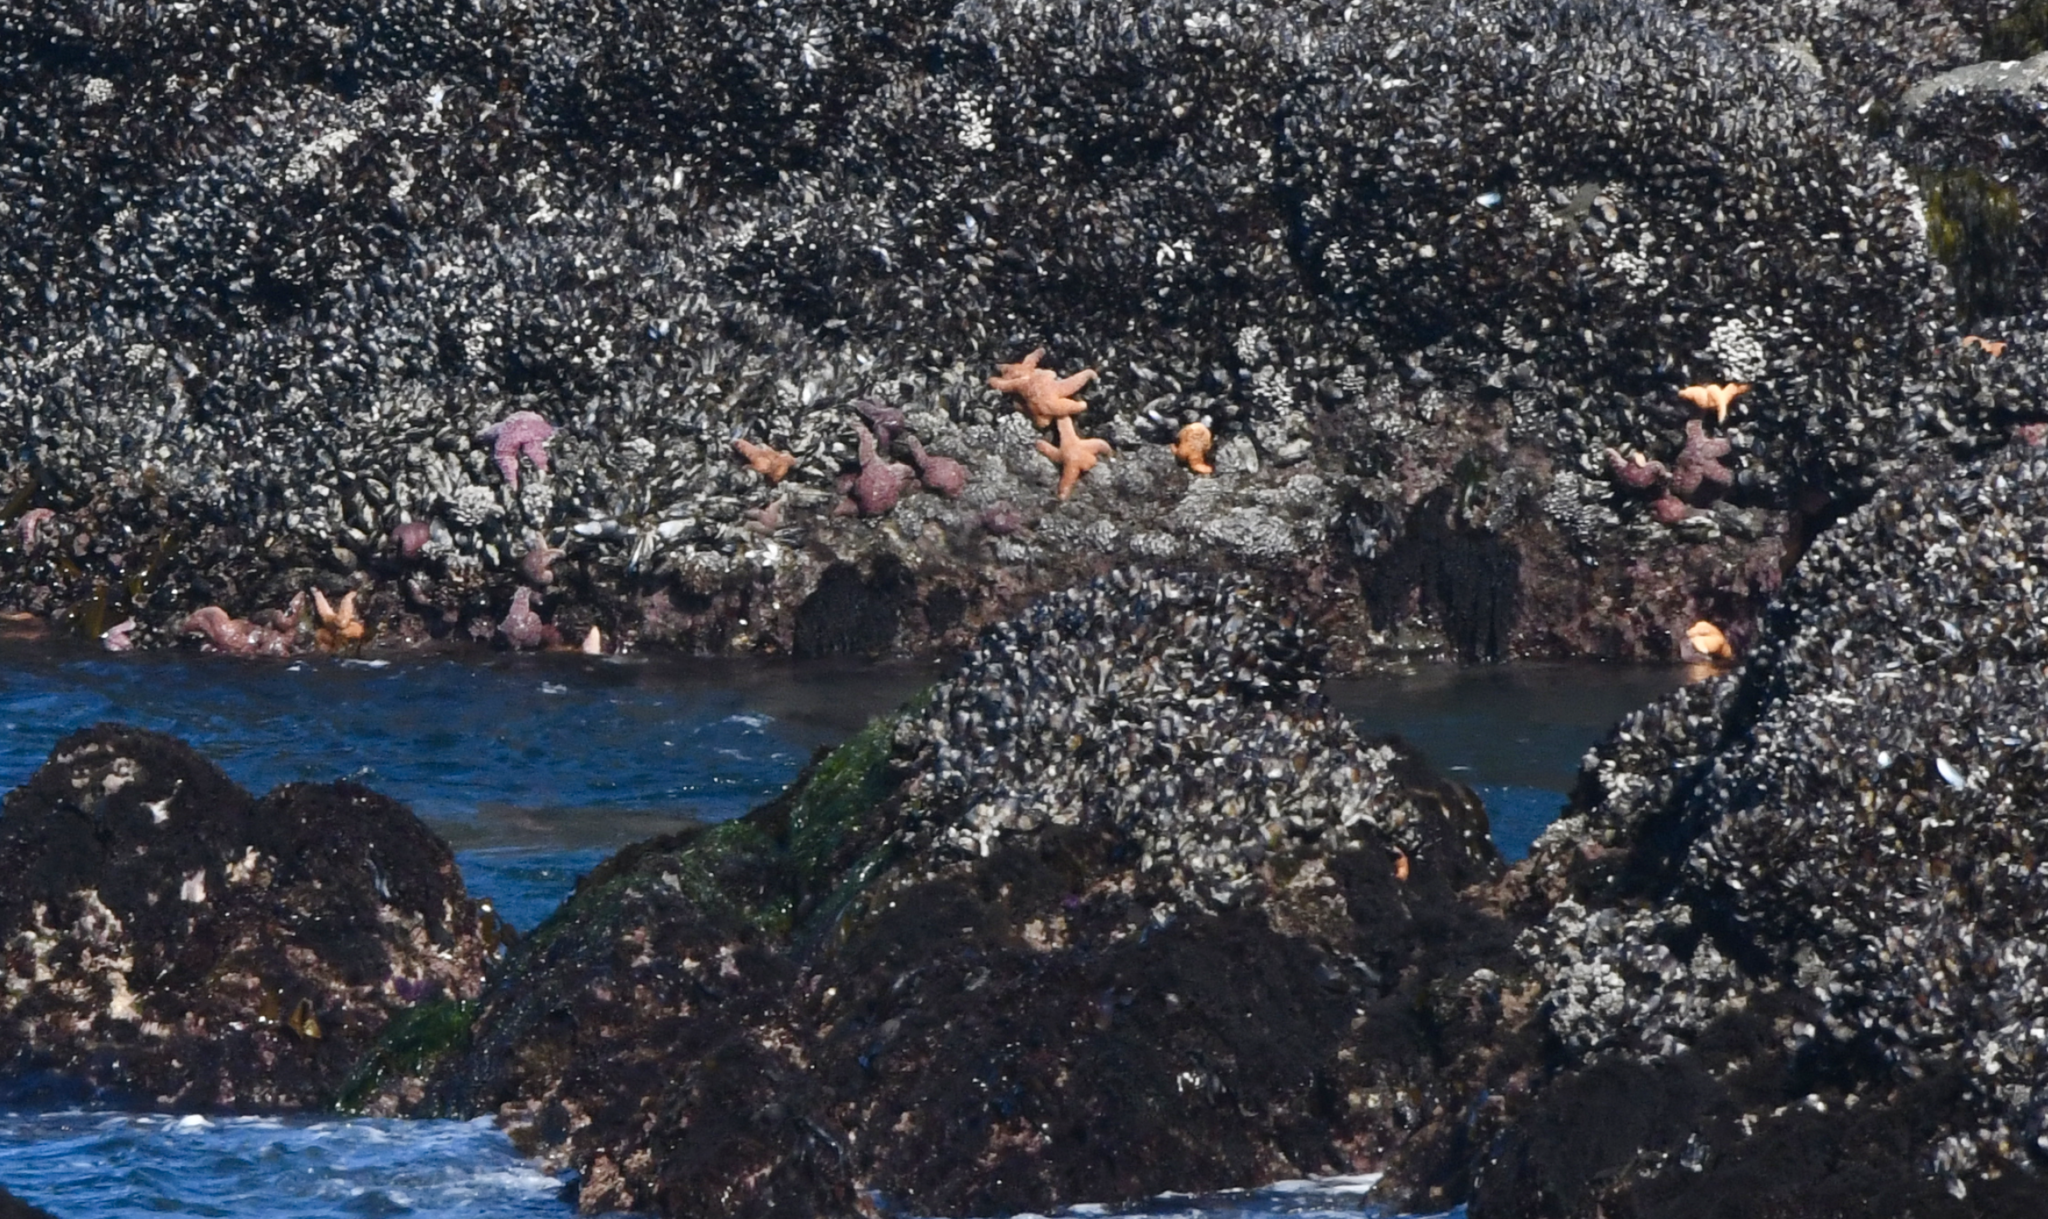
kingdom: Animalia
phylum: Echinodermata
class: Asteroidea
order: Forcipulatida
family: Asteriidae
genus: Pisaster
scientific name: Pisaster ochraceus
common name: Ochre stars
